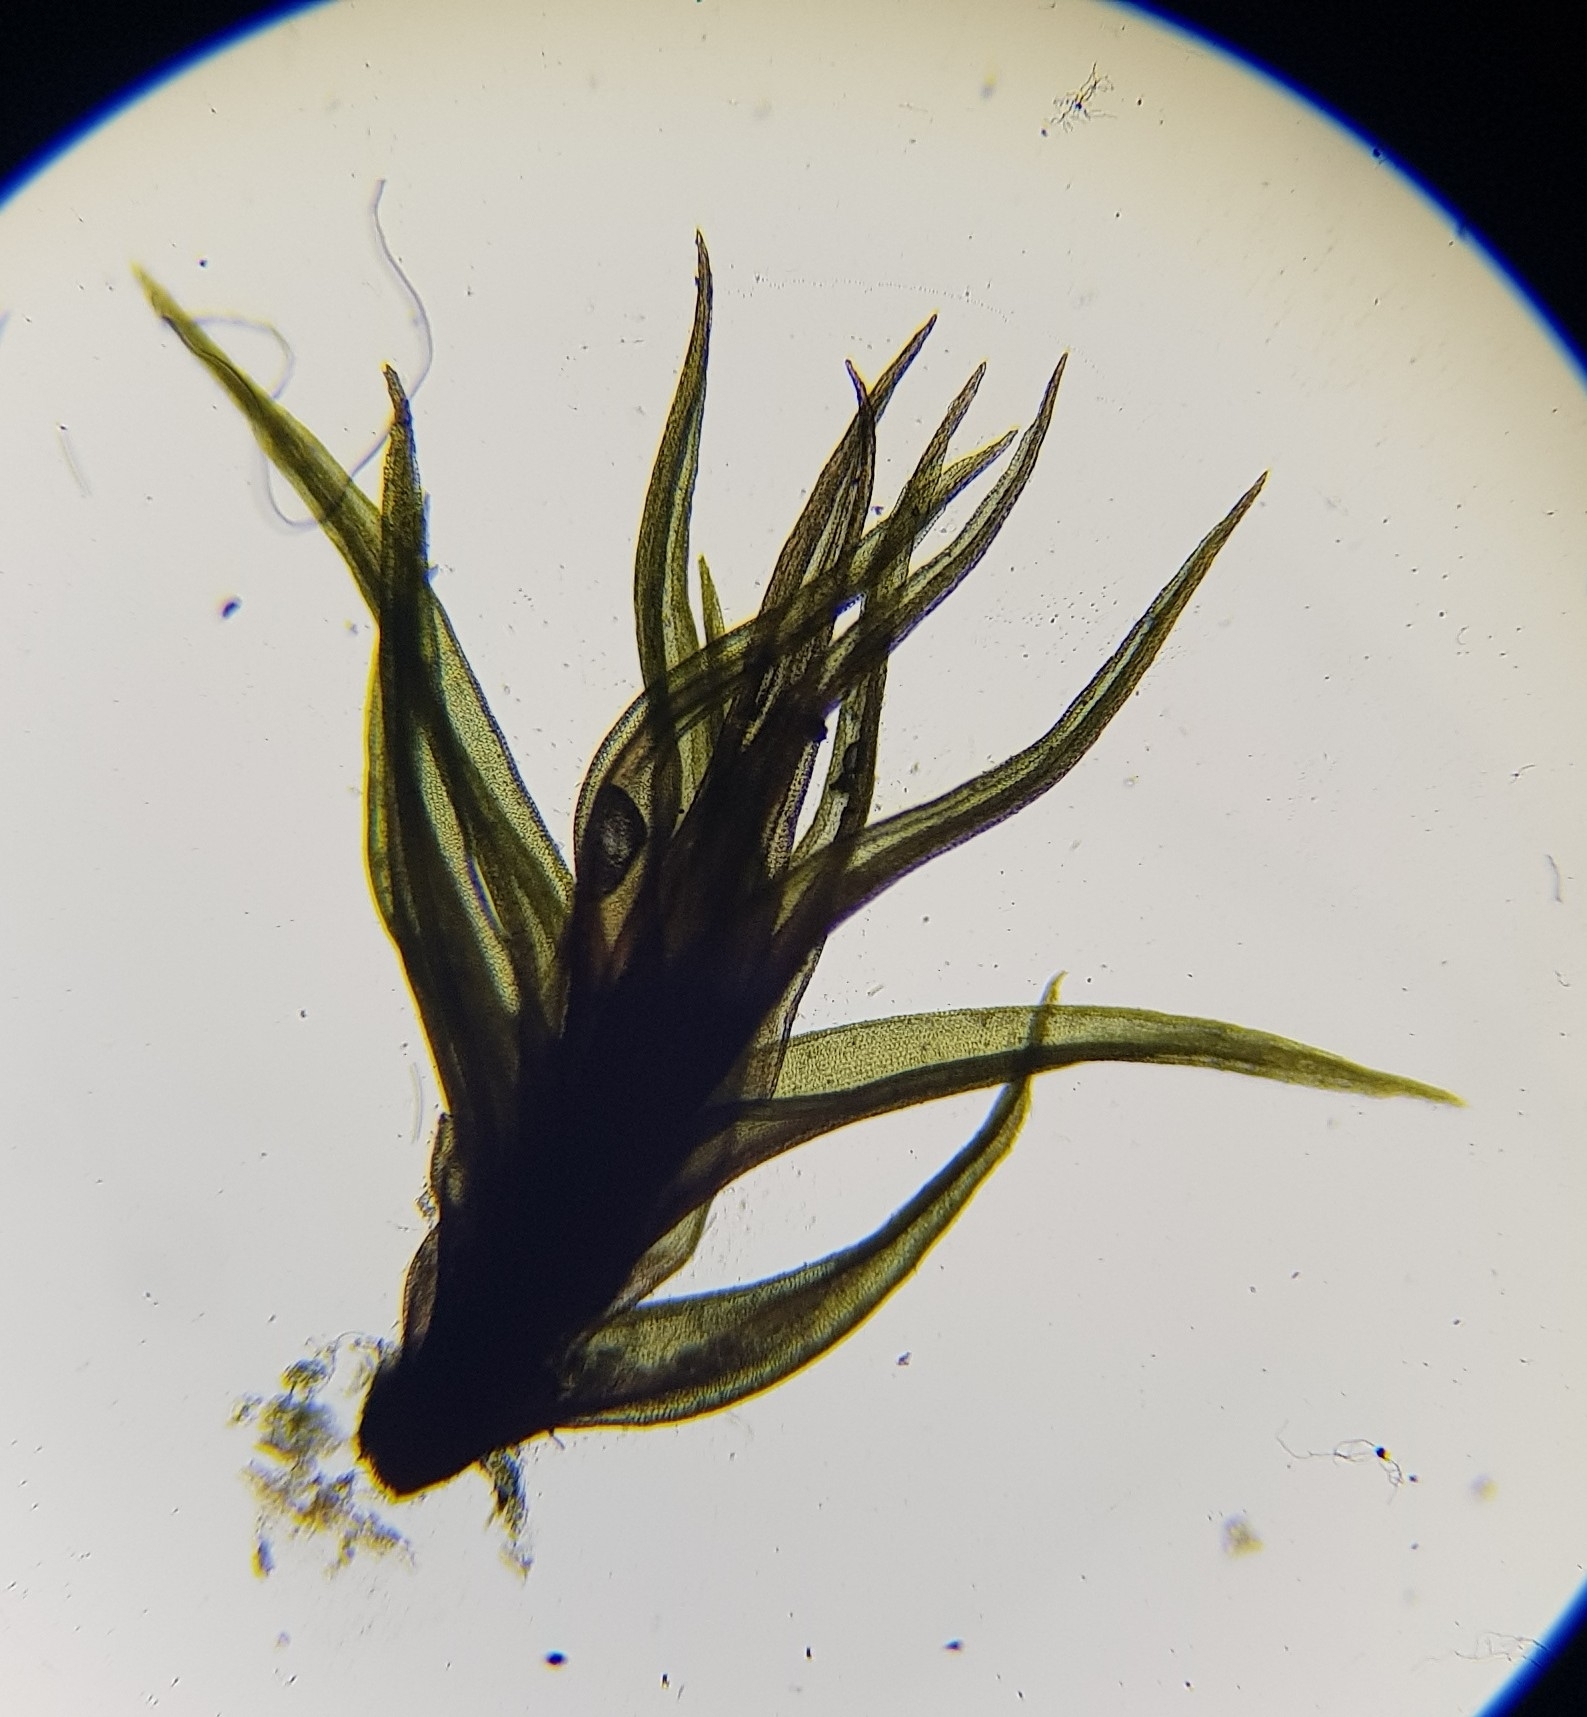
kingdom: Plantae
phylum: Bryophyta
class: Bryopsida
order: Dicranales
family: Ditrichaceae
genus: Ceratodon
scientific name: Ceratodon purpureus
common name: Redshank
